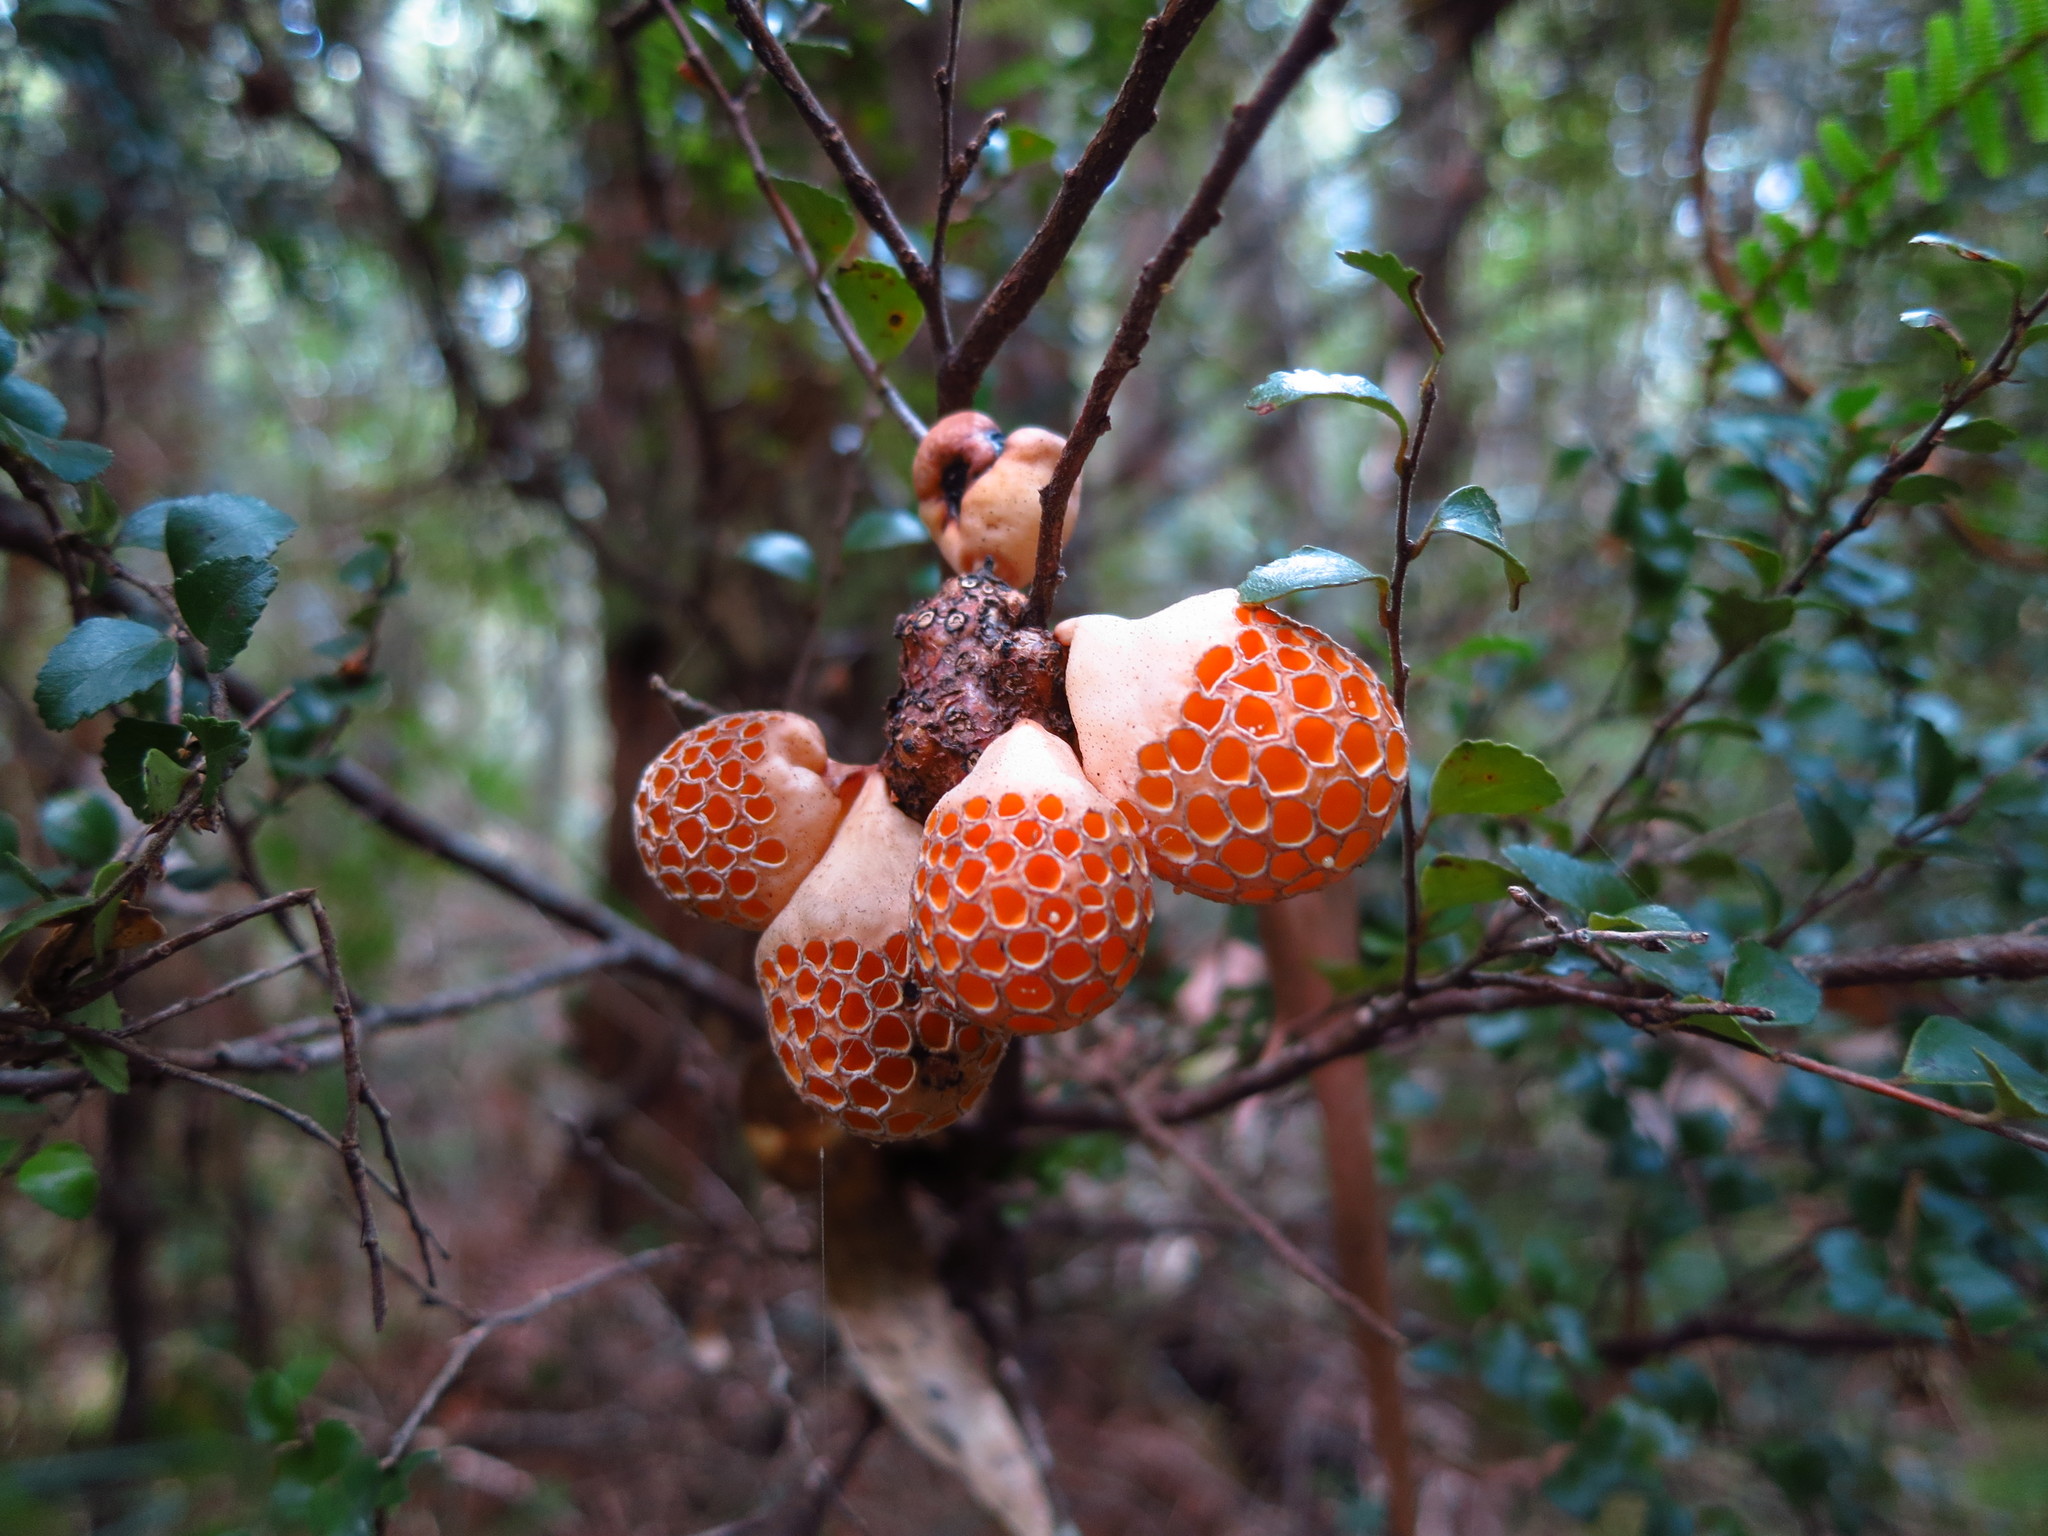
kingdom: Fungi
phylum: Ascomycota
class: Leotiomycetes
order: Cyttariales
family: Cyttariaceae
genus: Cyttaria
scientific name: Cyttaria gunnii
